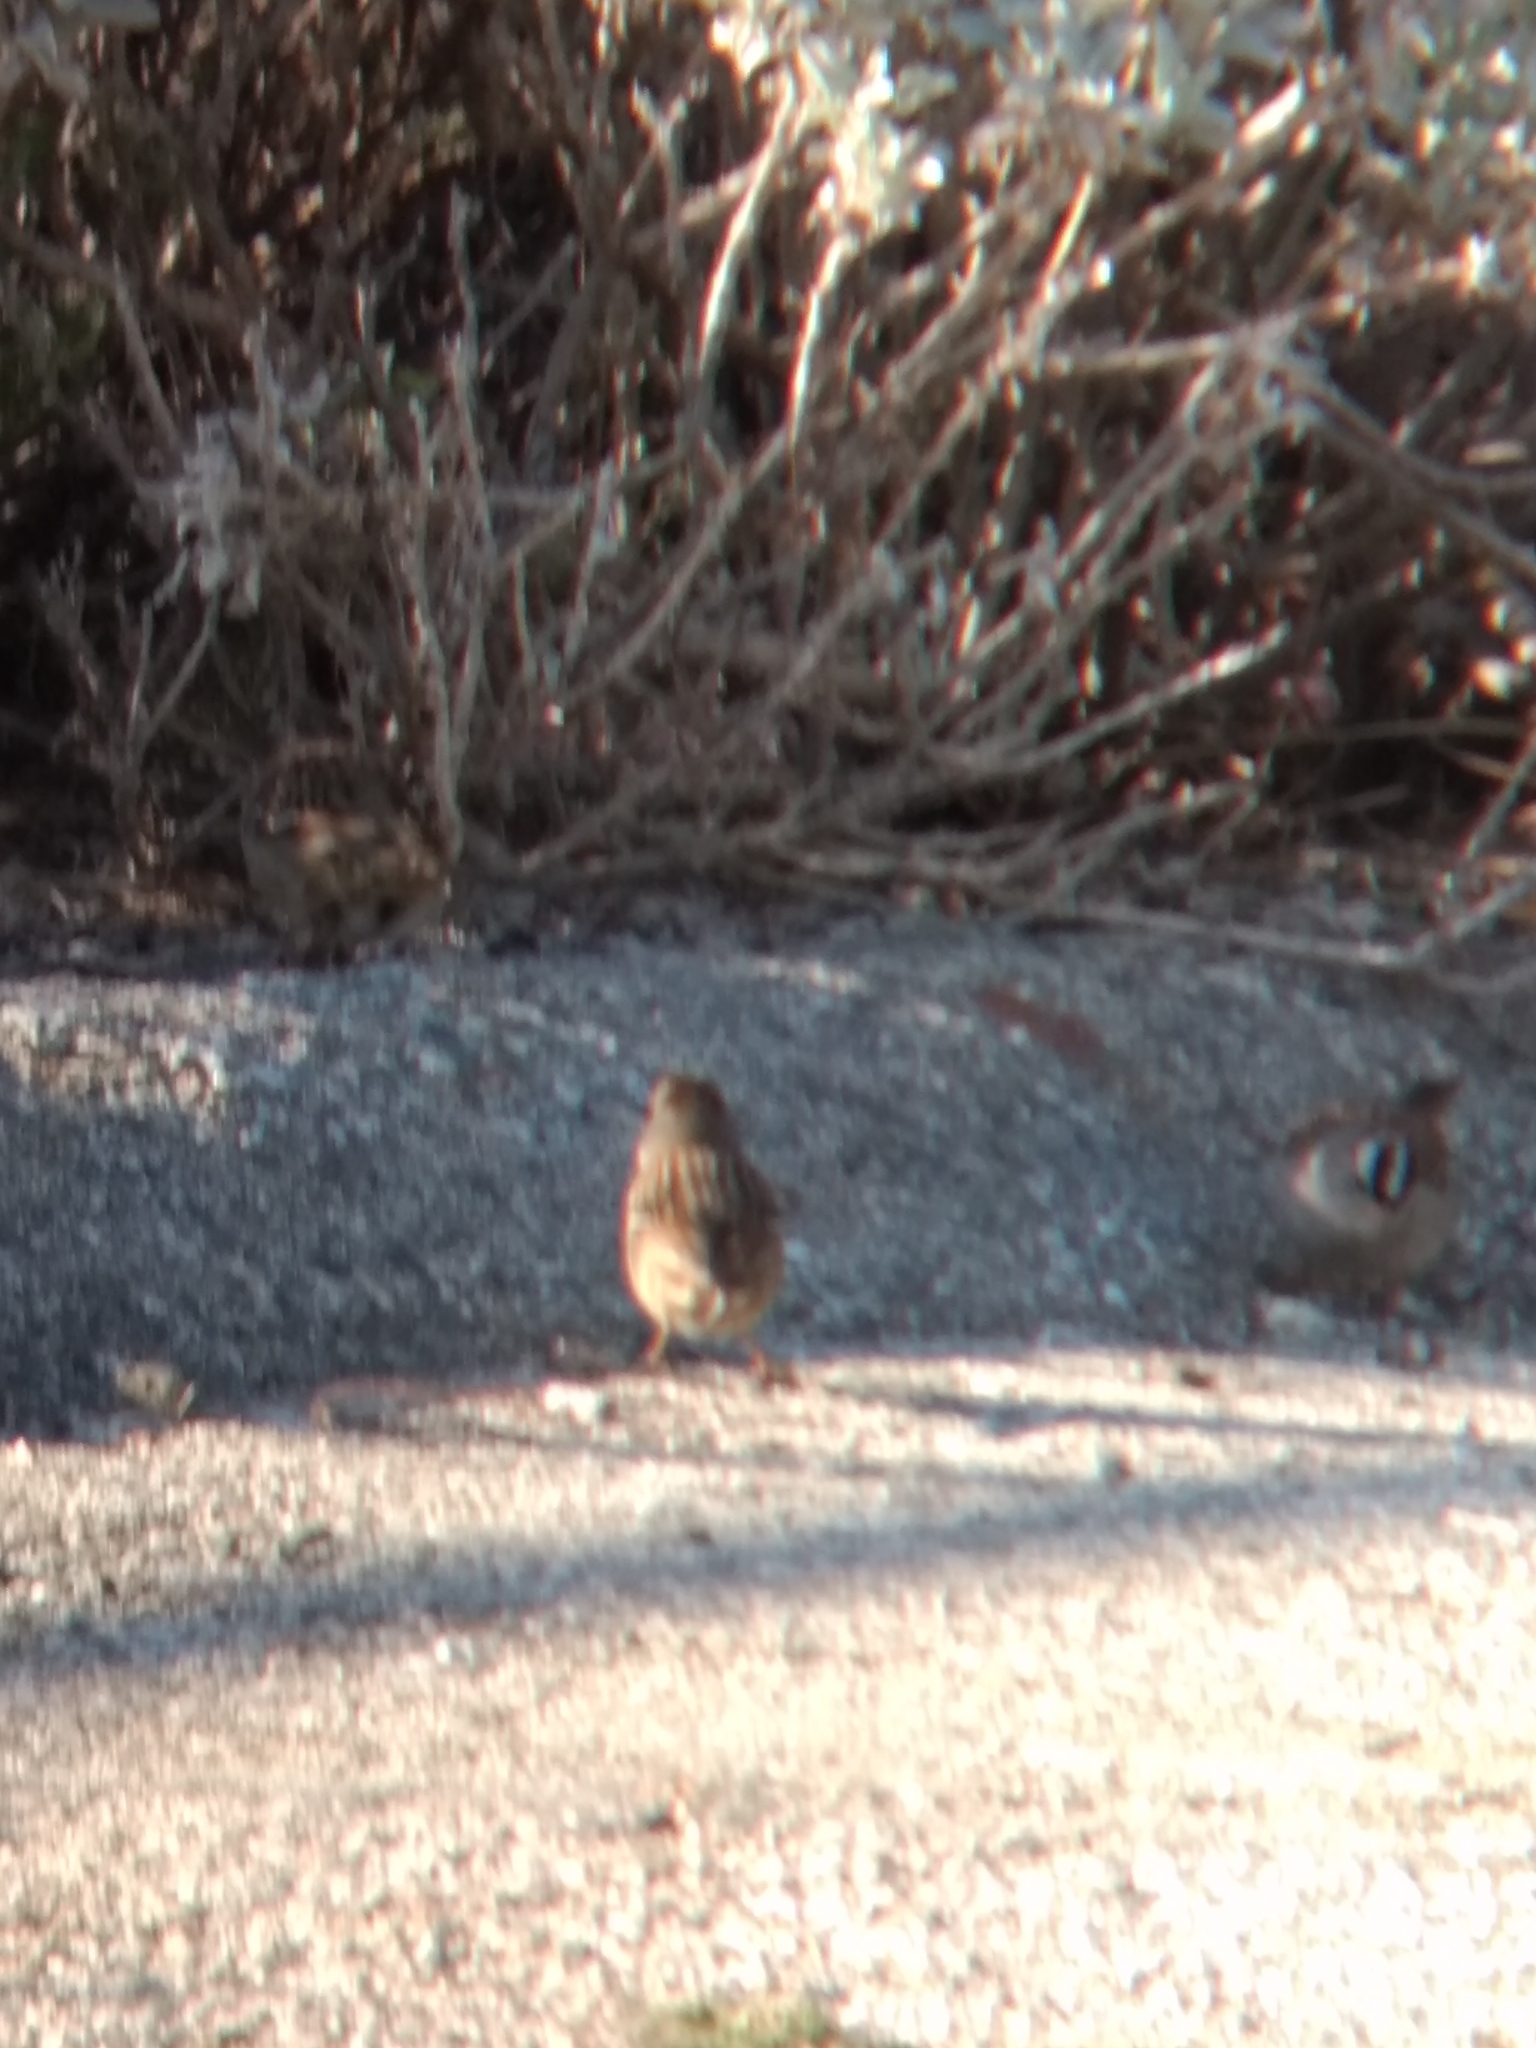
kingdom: Animalia
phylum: Chordata
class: Aves
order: Passeriformes
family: Passerellidae
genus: Zonotrichia
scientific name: Zonotrichia leucophrys
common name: White-crowned sparrow
